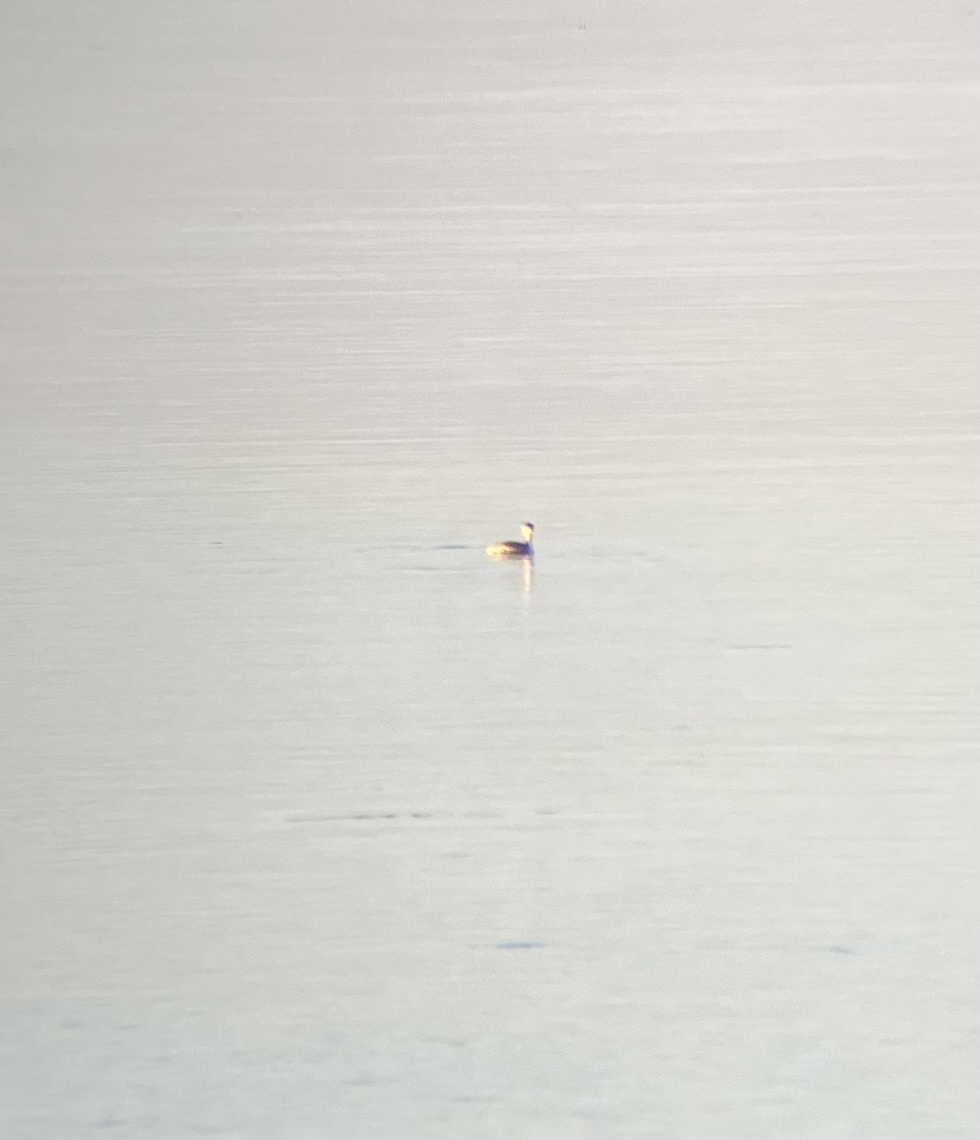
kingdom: Animalia
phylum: Chordata
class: Aves
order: Podicipediformes
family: Podicipedidae
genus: Podiceps
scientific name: Podiceps auritus
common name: Horned grebe
